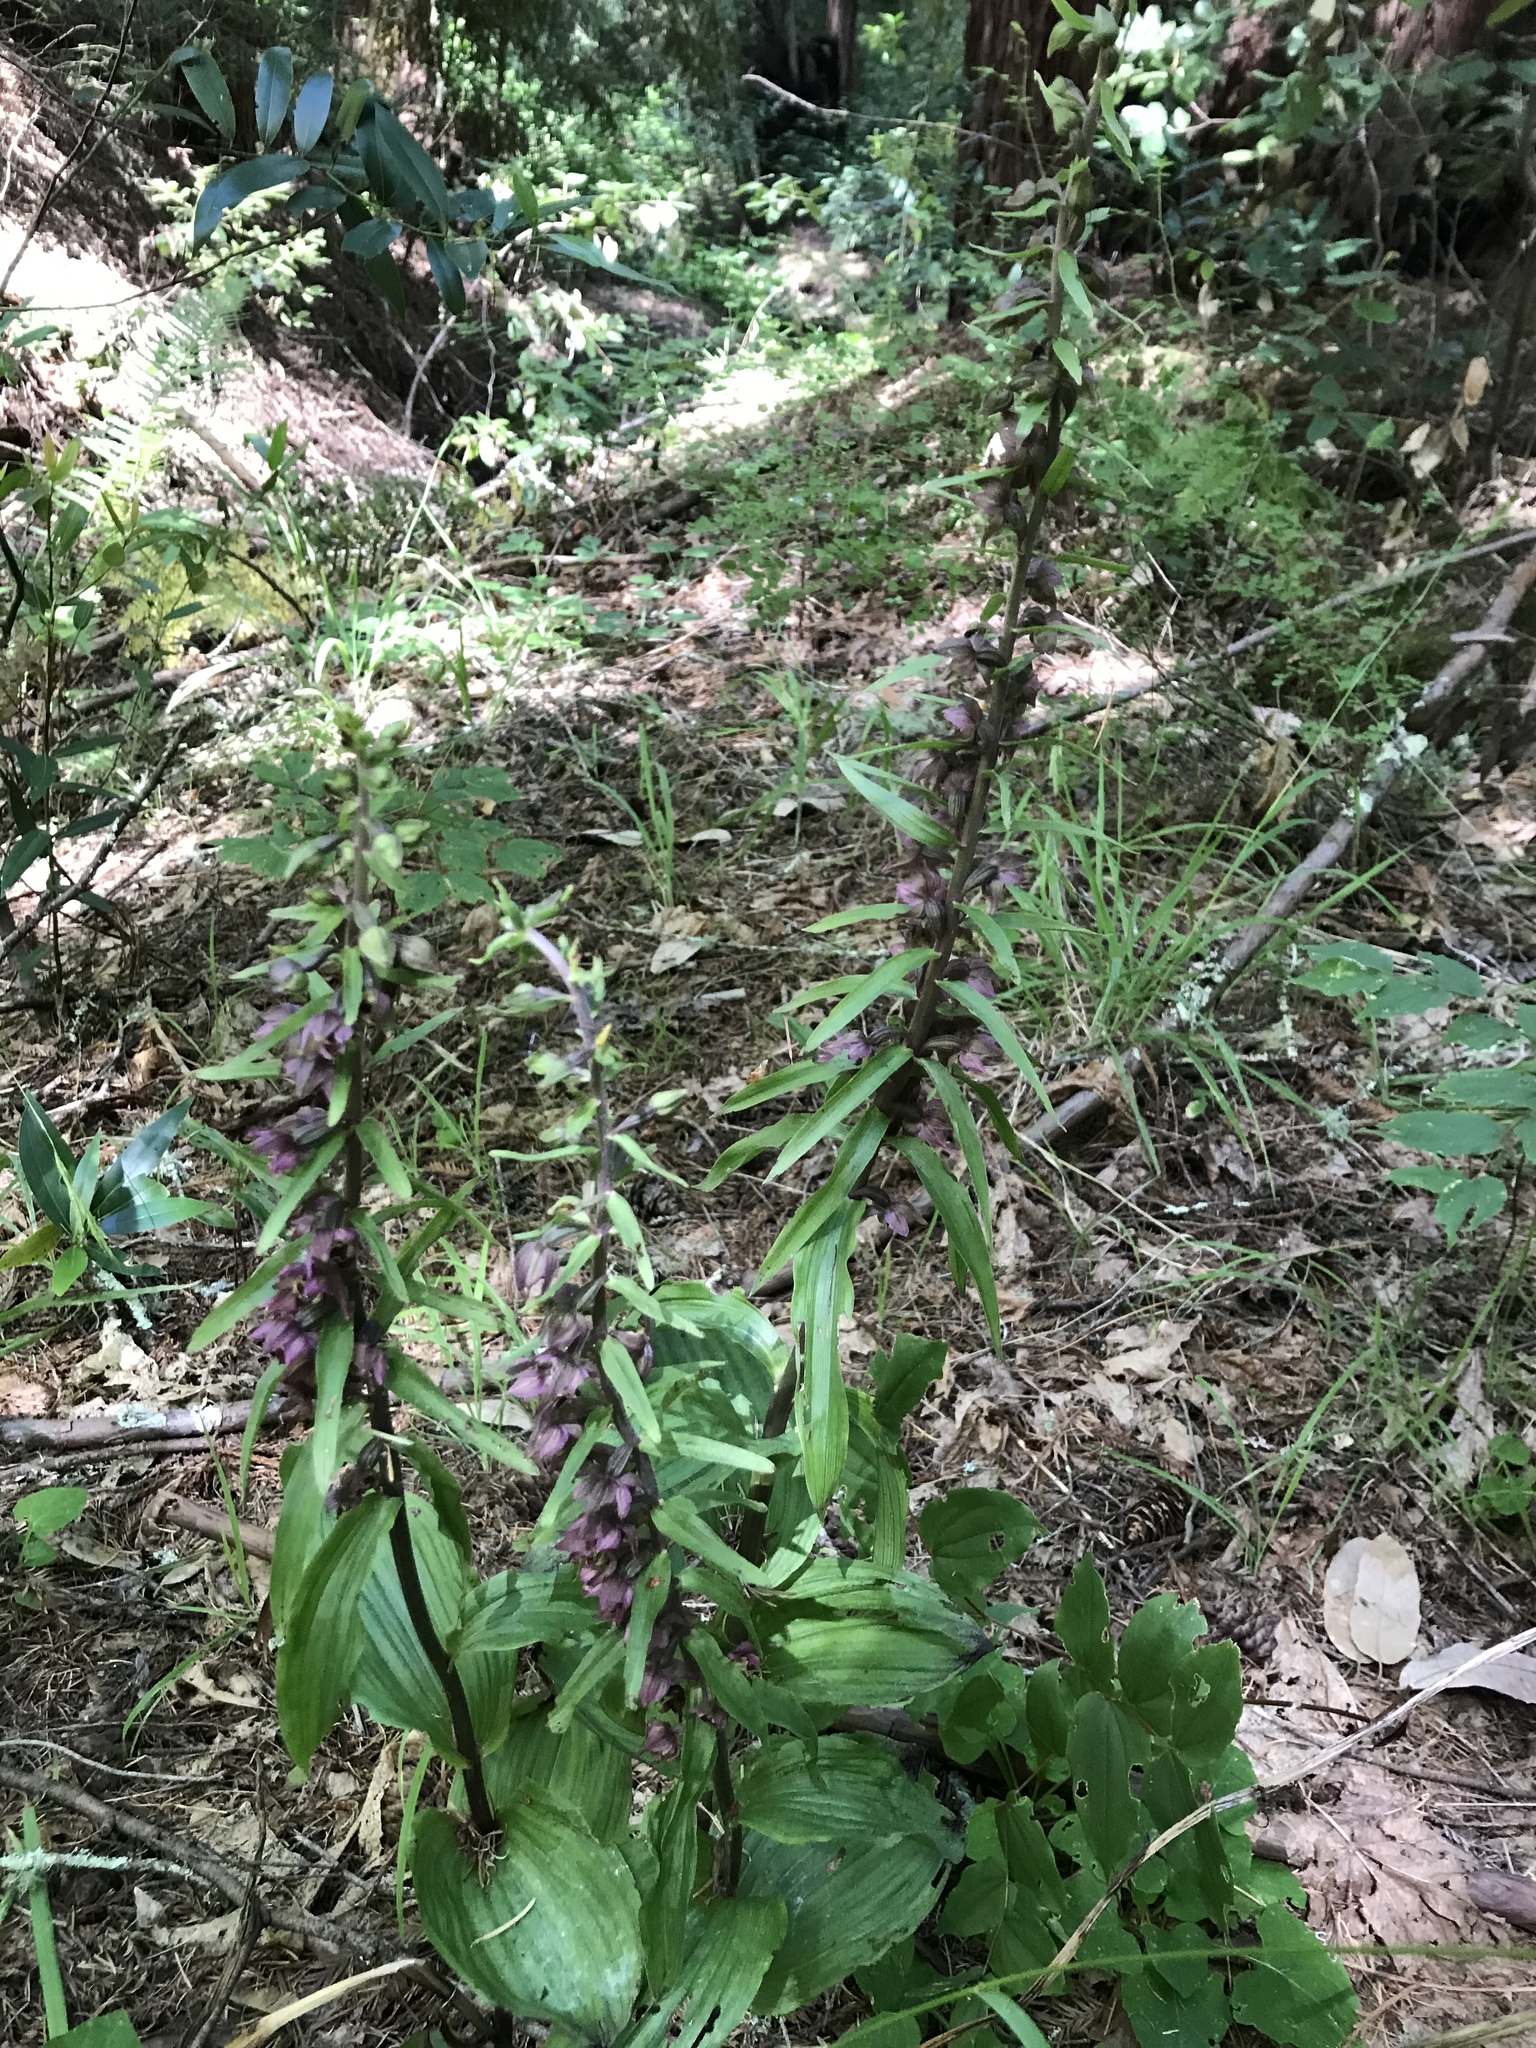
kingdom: Plantae
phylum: Tracheophyta
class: Liliopsida
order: Asparagales
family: Orchidaceae
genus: Epipactis
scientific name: Epipactis helleborine
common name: Broad-leaved helleborine
